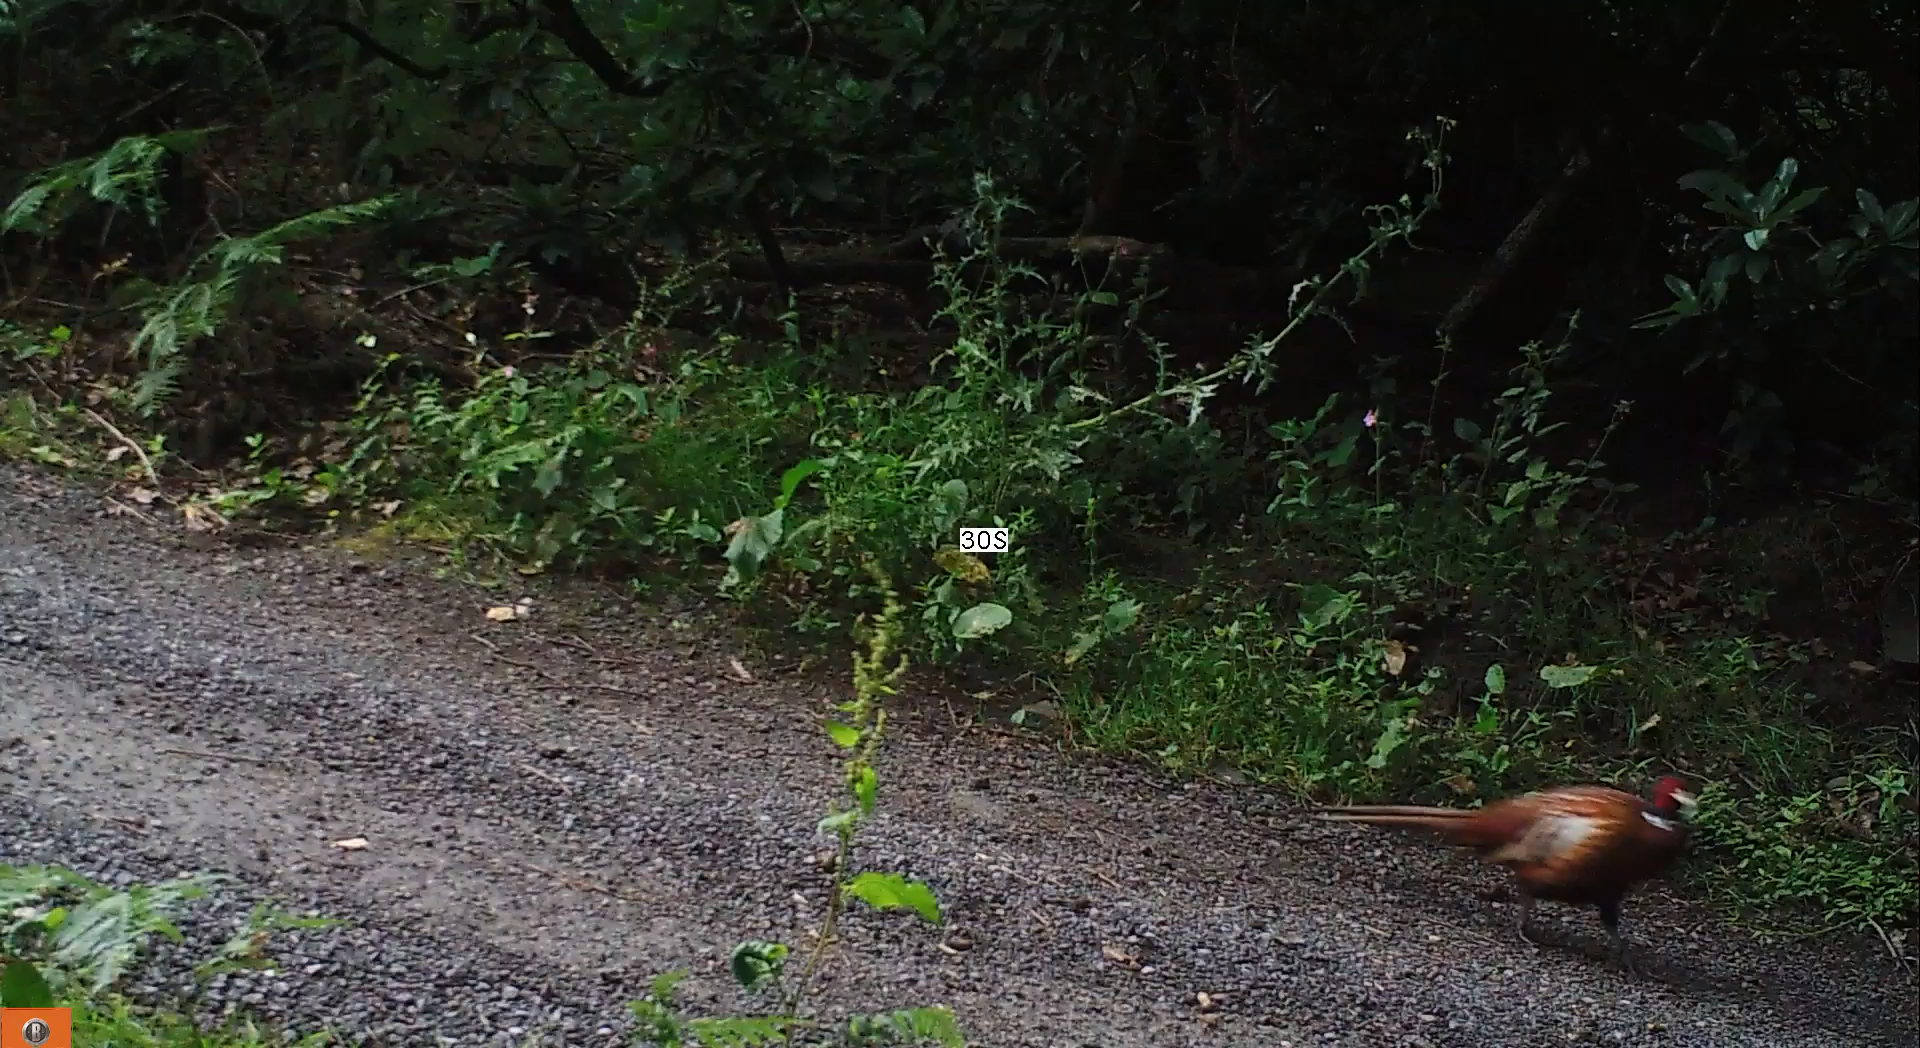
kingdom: Animalia
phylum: Chordata
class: Aves
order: Galliformes
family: Phasianidae
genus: Phasianus
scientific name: Phasianus colchicus
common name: Common pheasant
